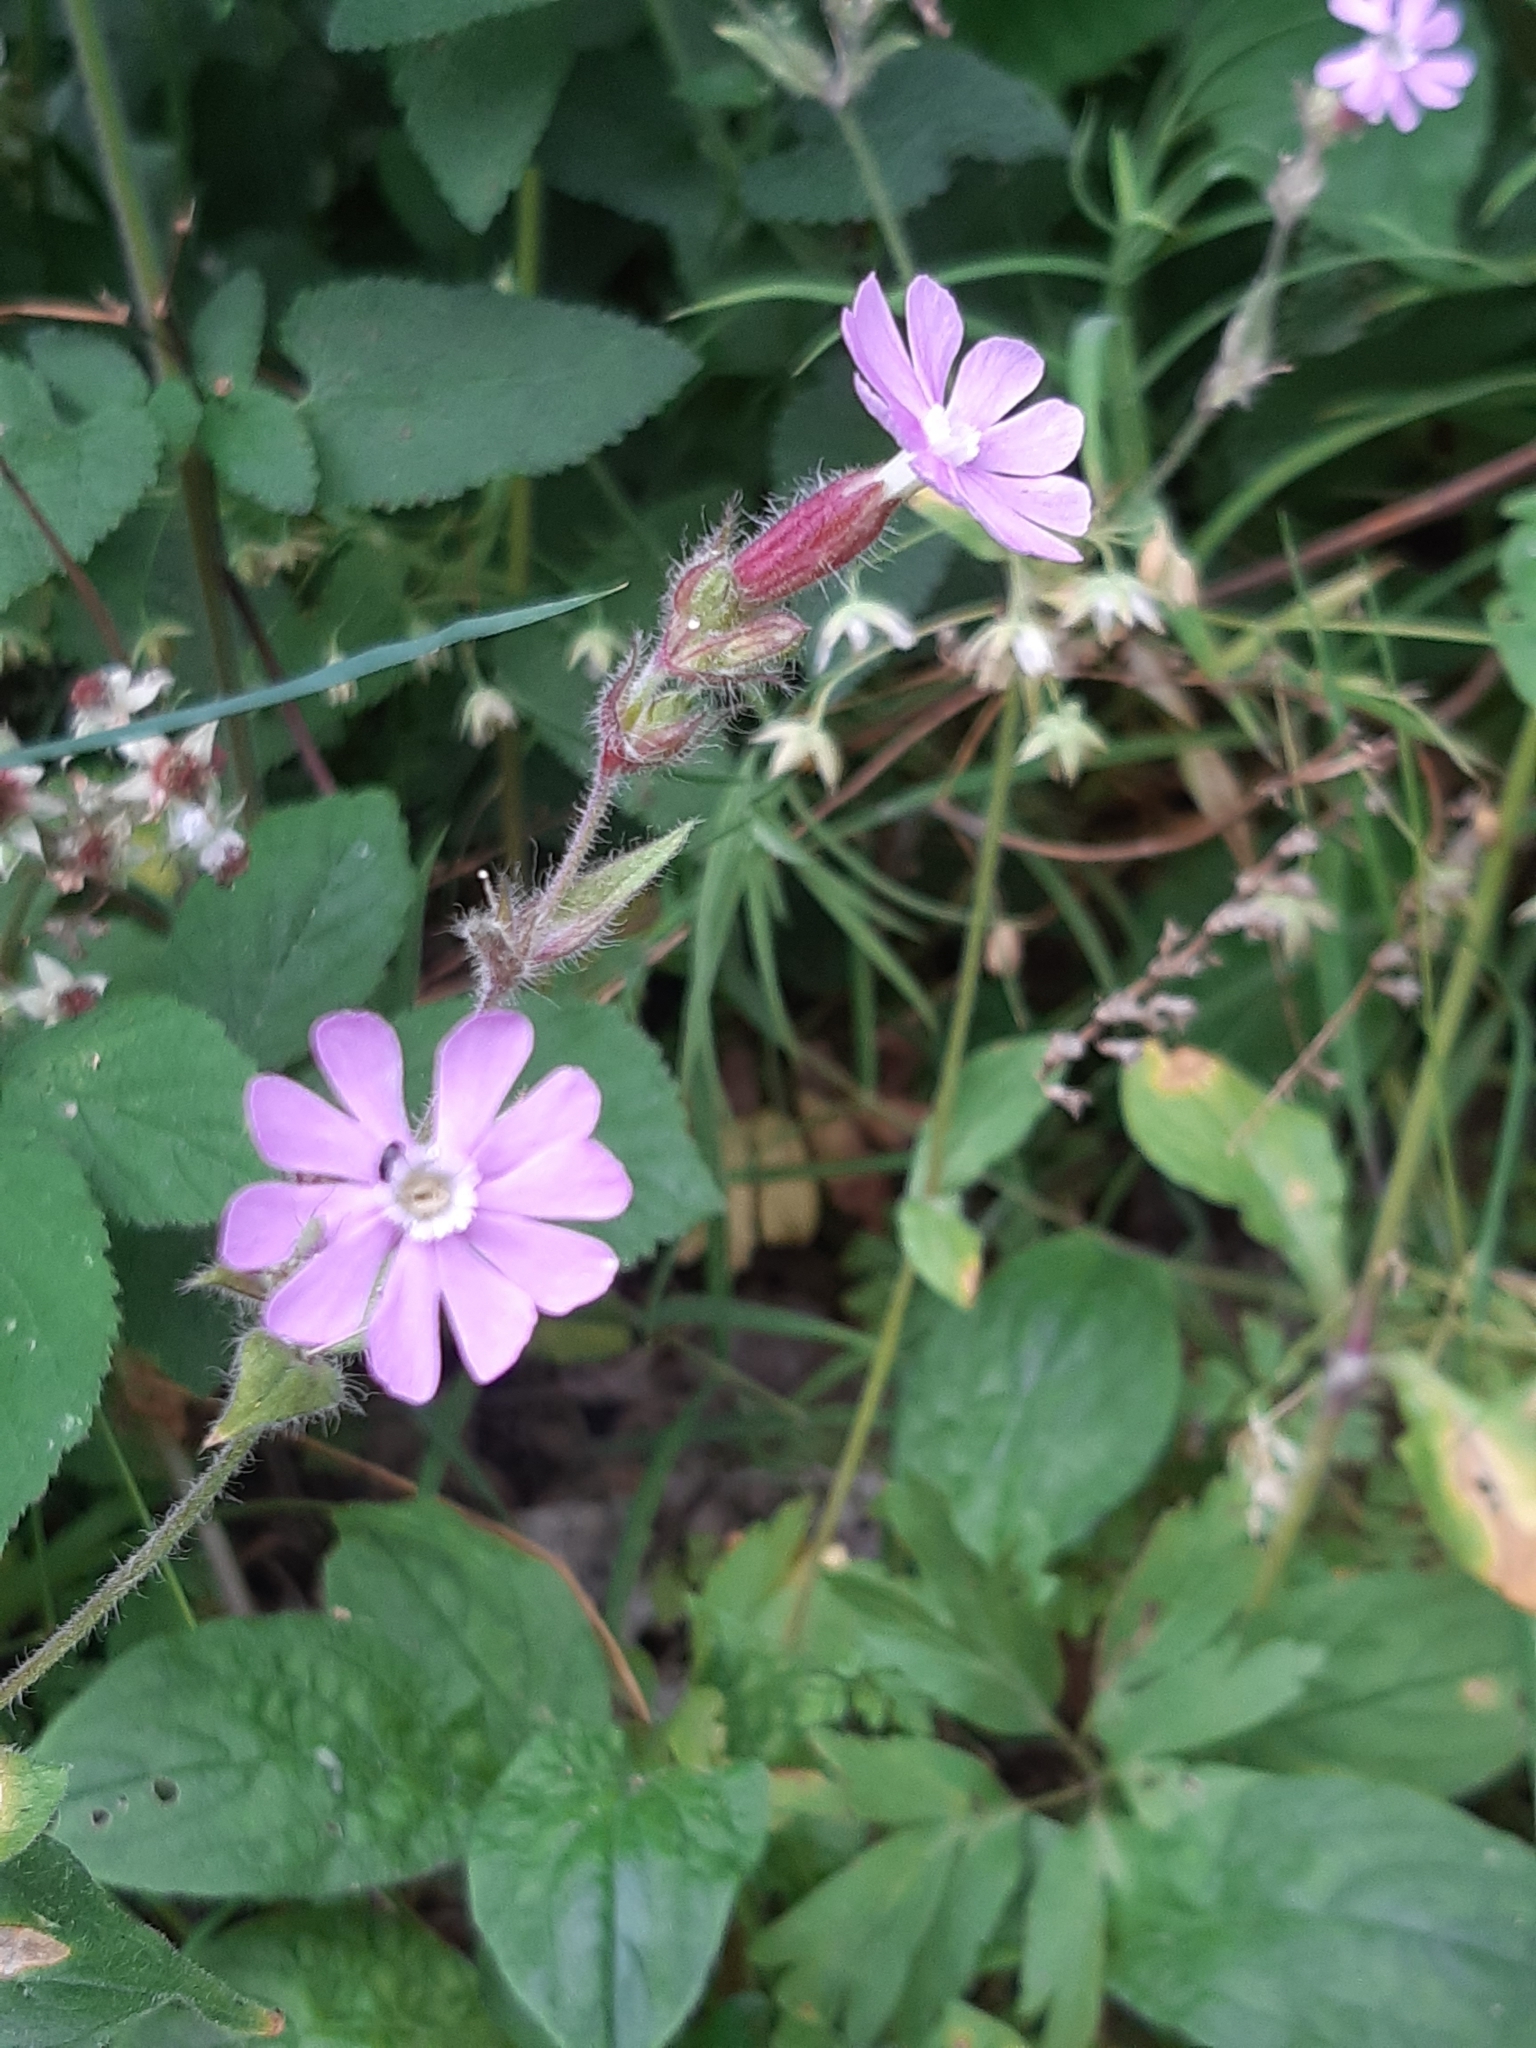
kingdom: Plantae
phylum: Tracheophyta
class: Magnoliopsida
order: Caryophyllales
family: Caryophyllaceae
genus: Silene
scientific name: Silene dioica
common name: Red campion
